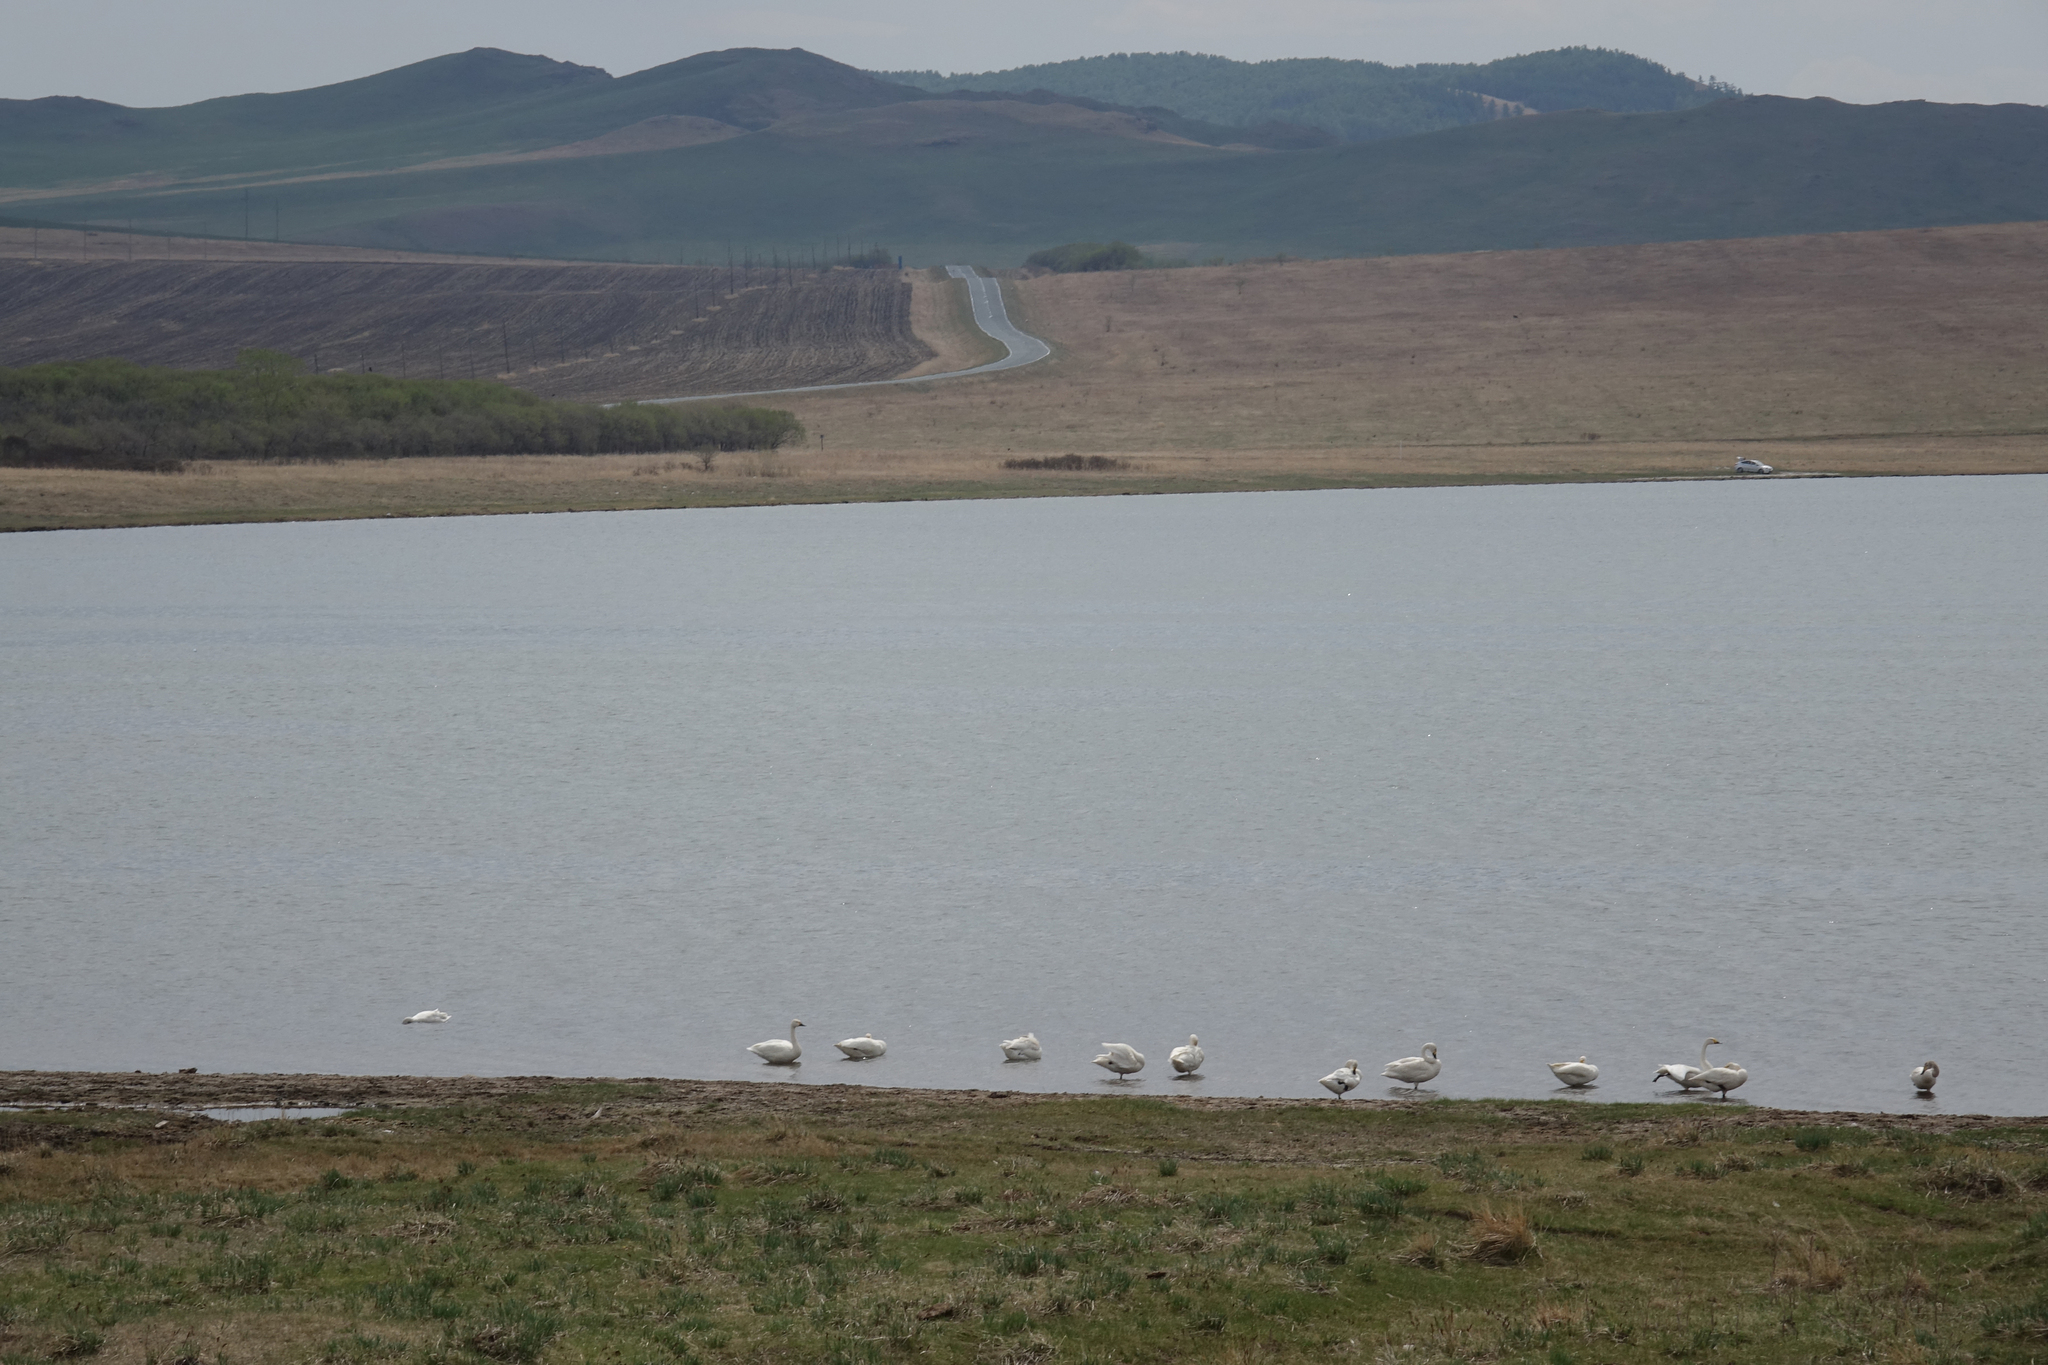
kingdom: Animalia
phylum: Chordata
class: Aves
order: Anseriformes
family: Anatidae
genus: Cygnus
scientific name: Cygnus columbianus
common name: Tundra swan
